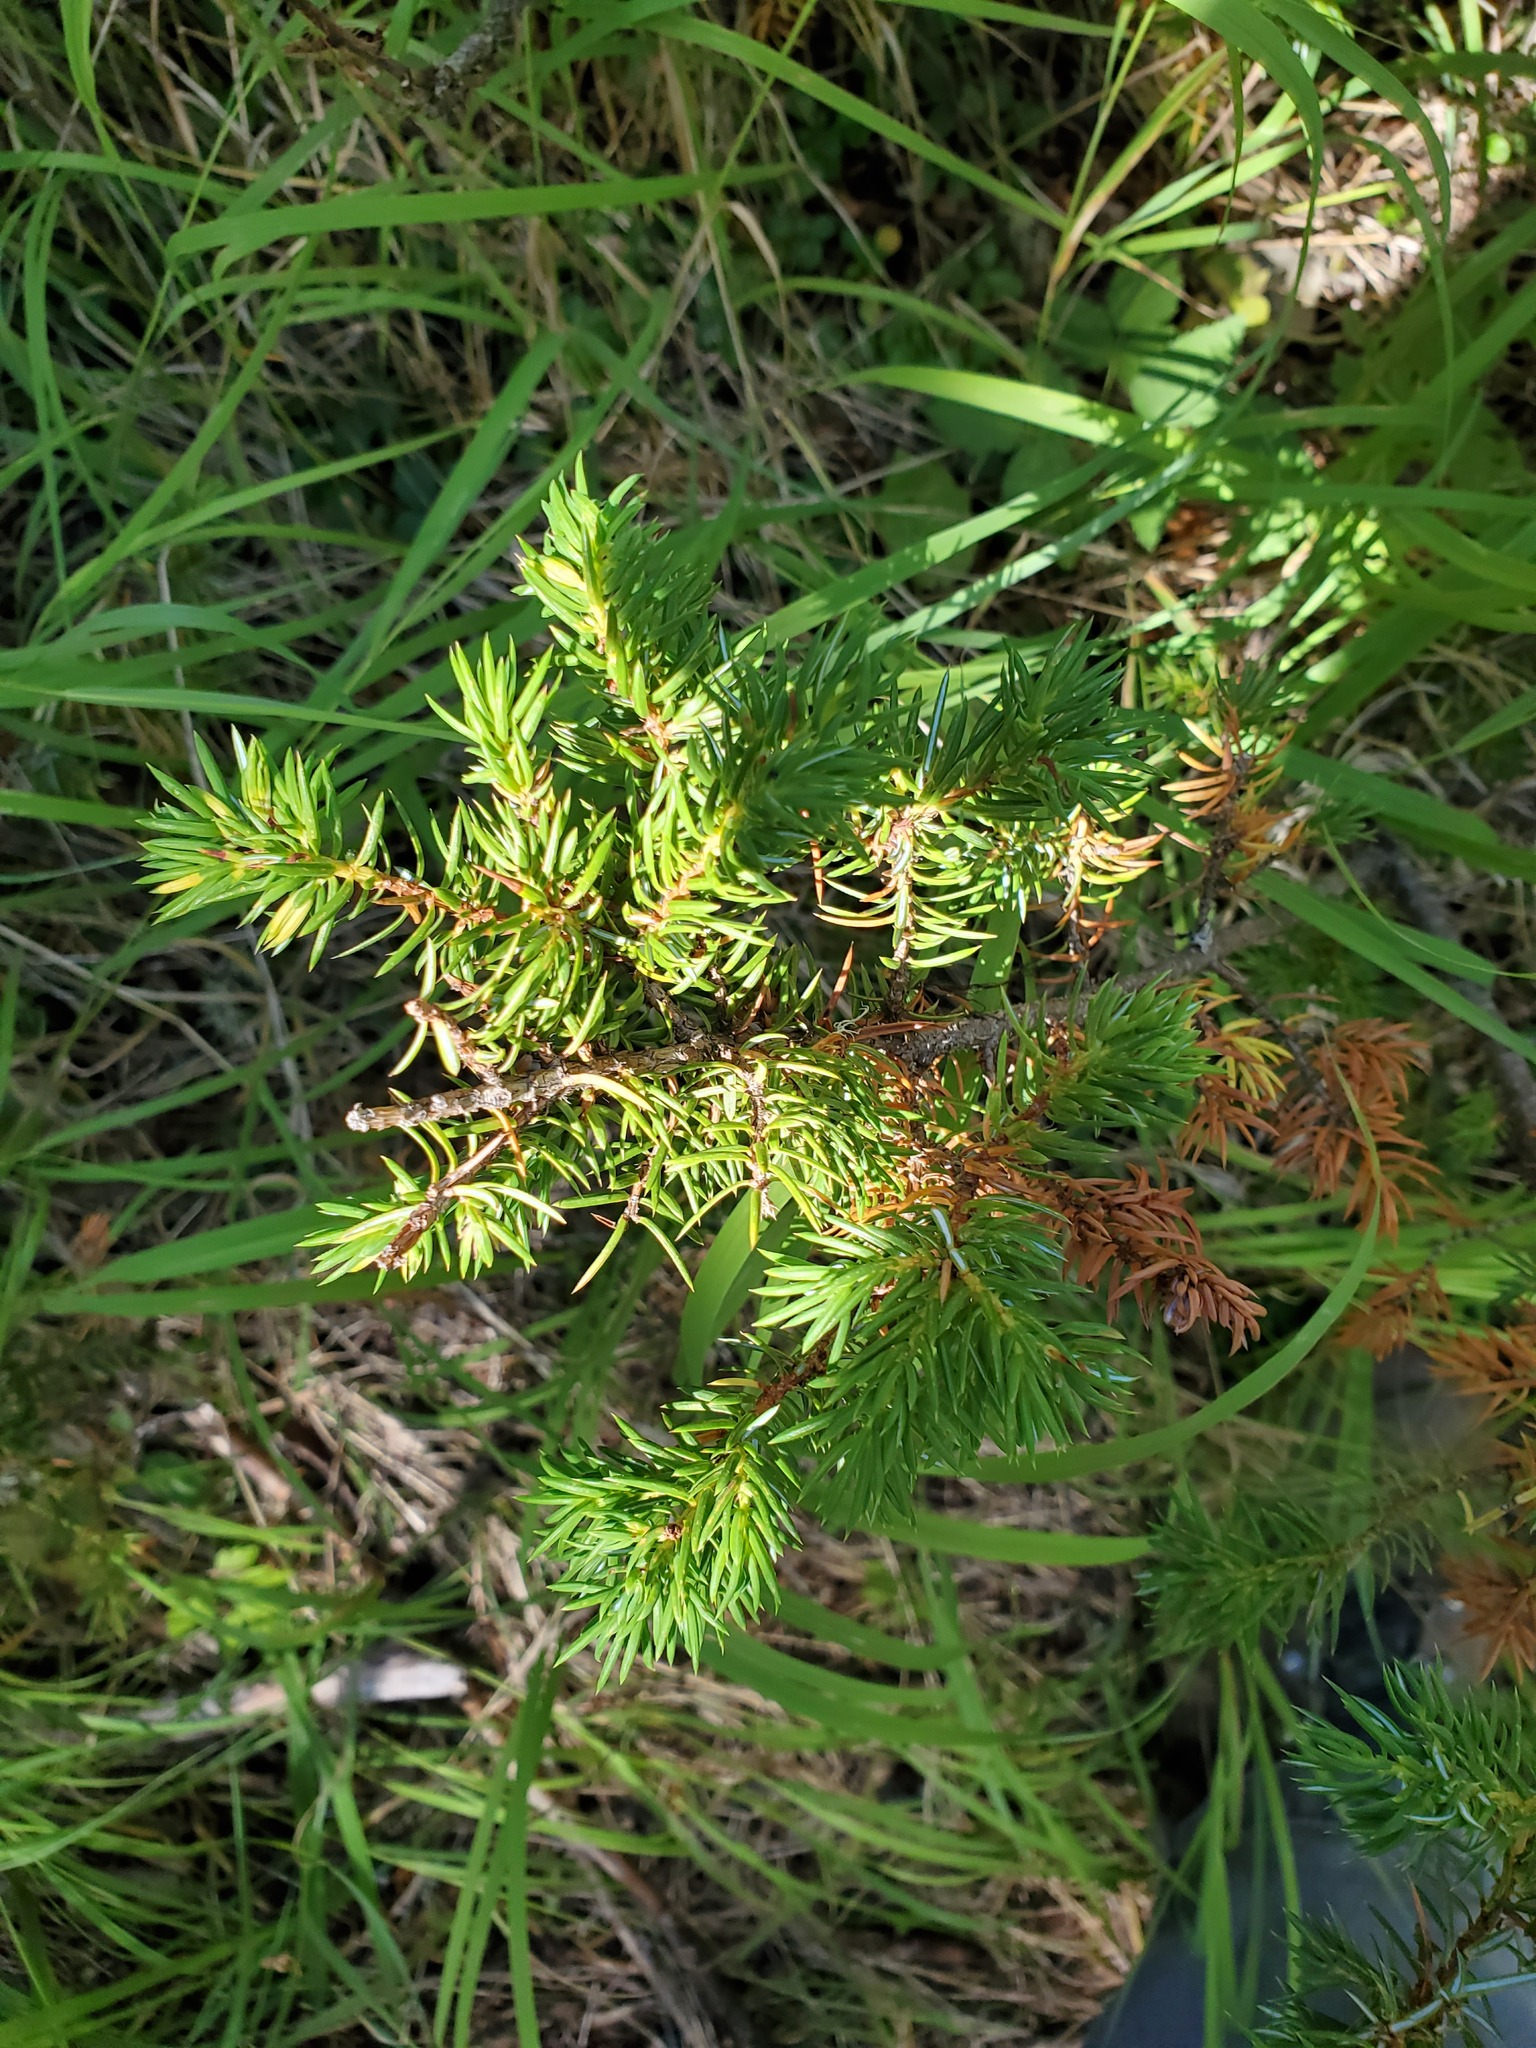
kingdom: Plantae
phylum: Tracheophyta
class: Pinopsida
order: Pinales
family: Cupressaceae
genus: Juniperus
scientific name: Juniperus communis
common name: Common juniper
